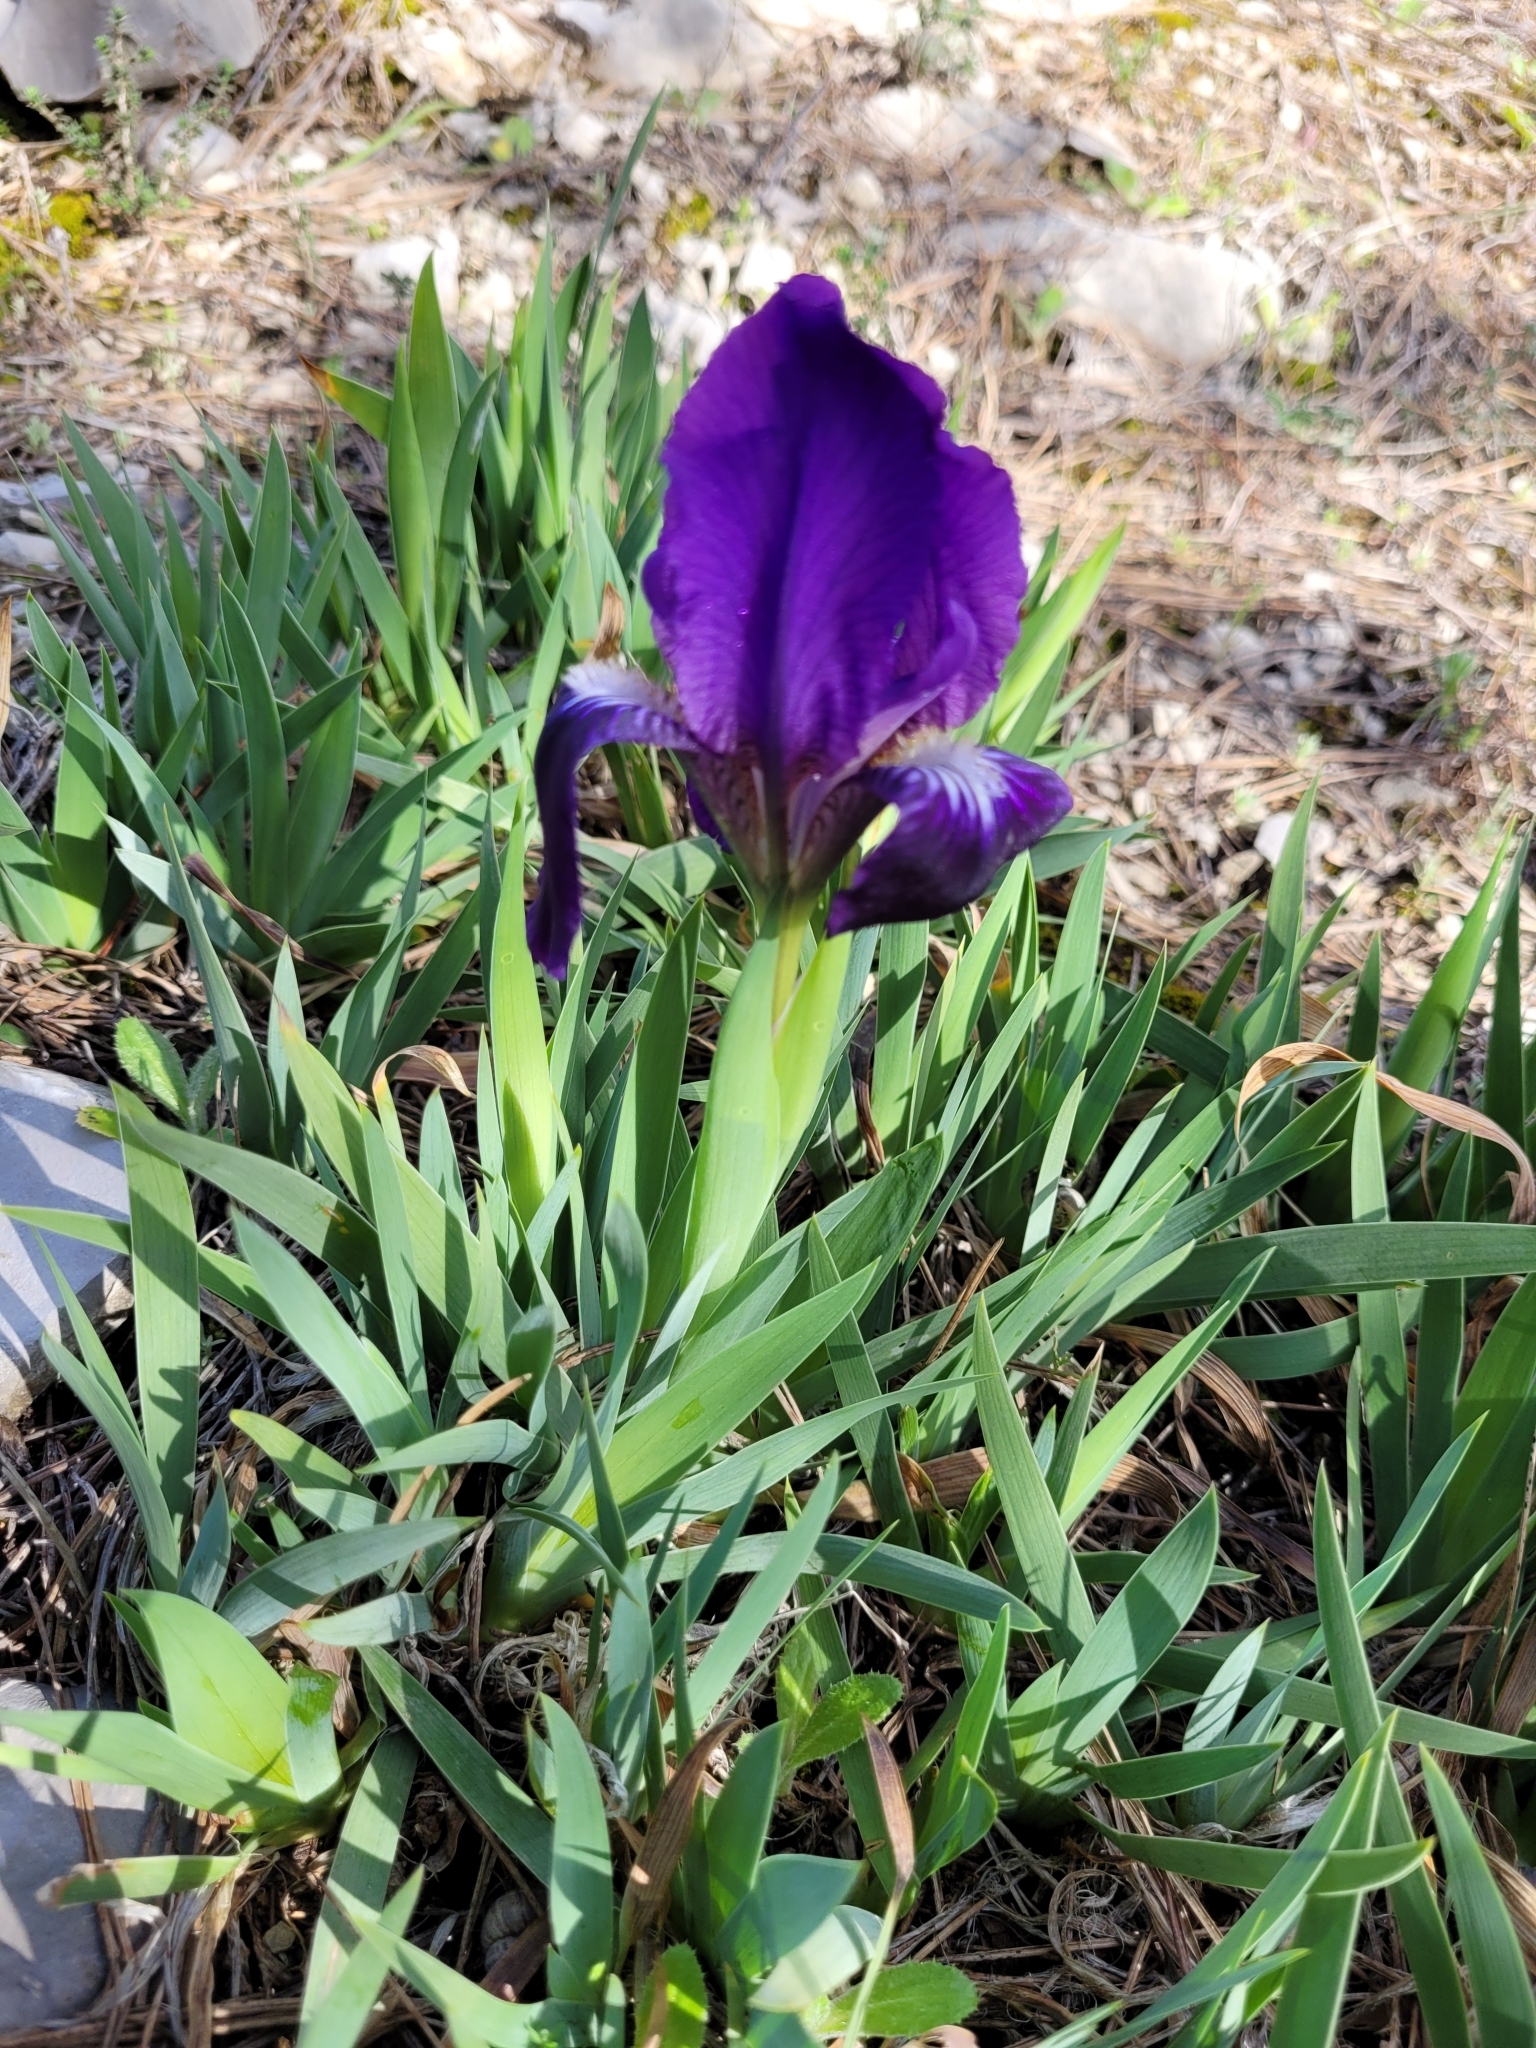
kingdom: Plantae
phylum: Tracheophyta
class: Liliopsida
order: Asparagales
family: Iridaceae
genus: Iris
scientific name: Iris lutescens
